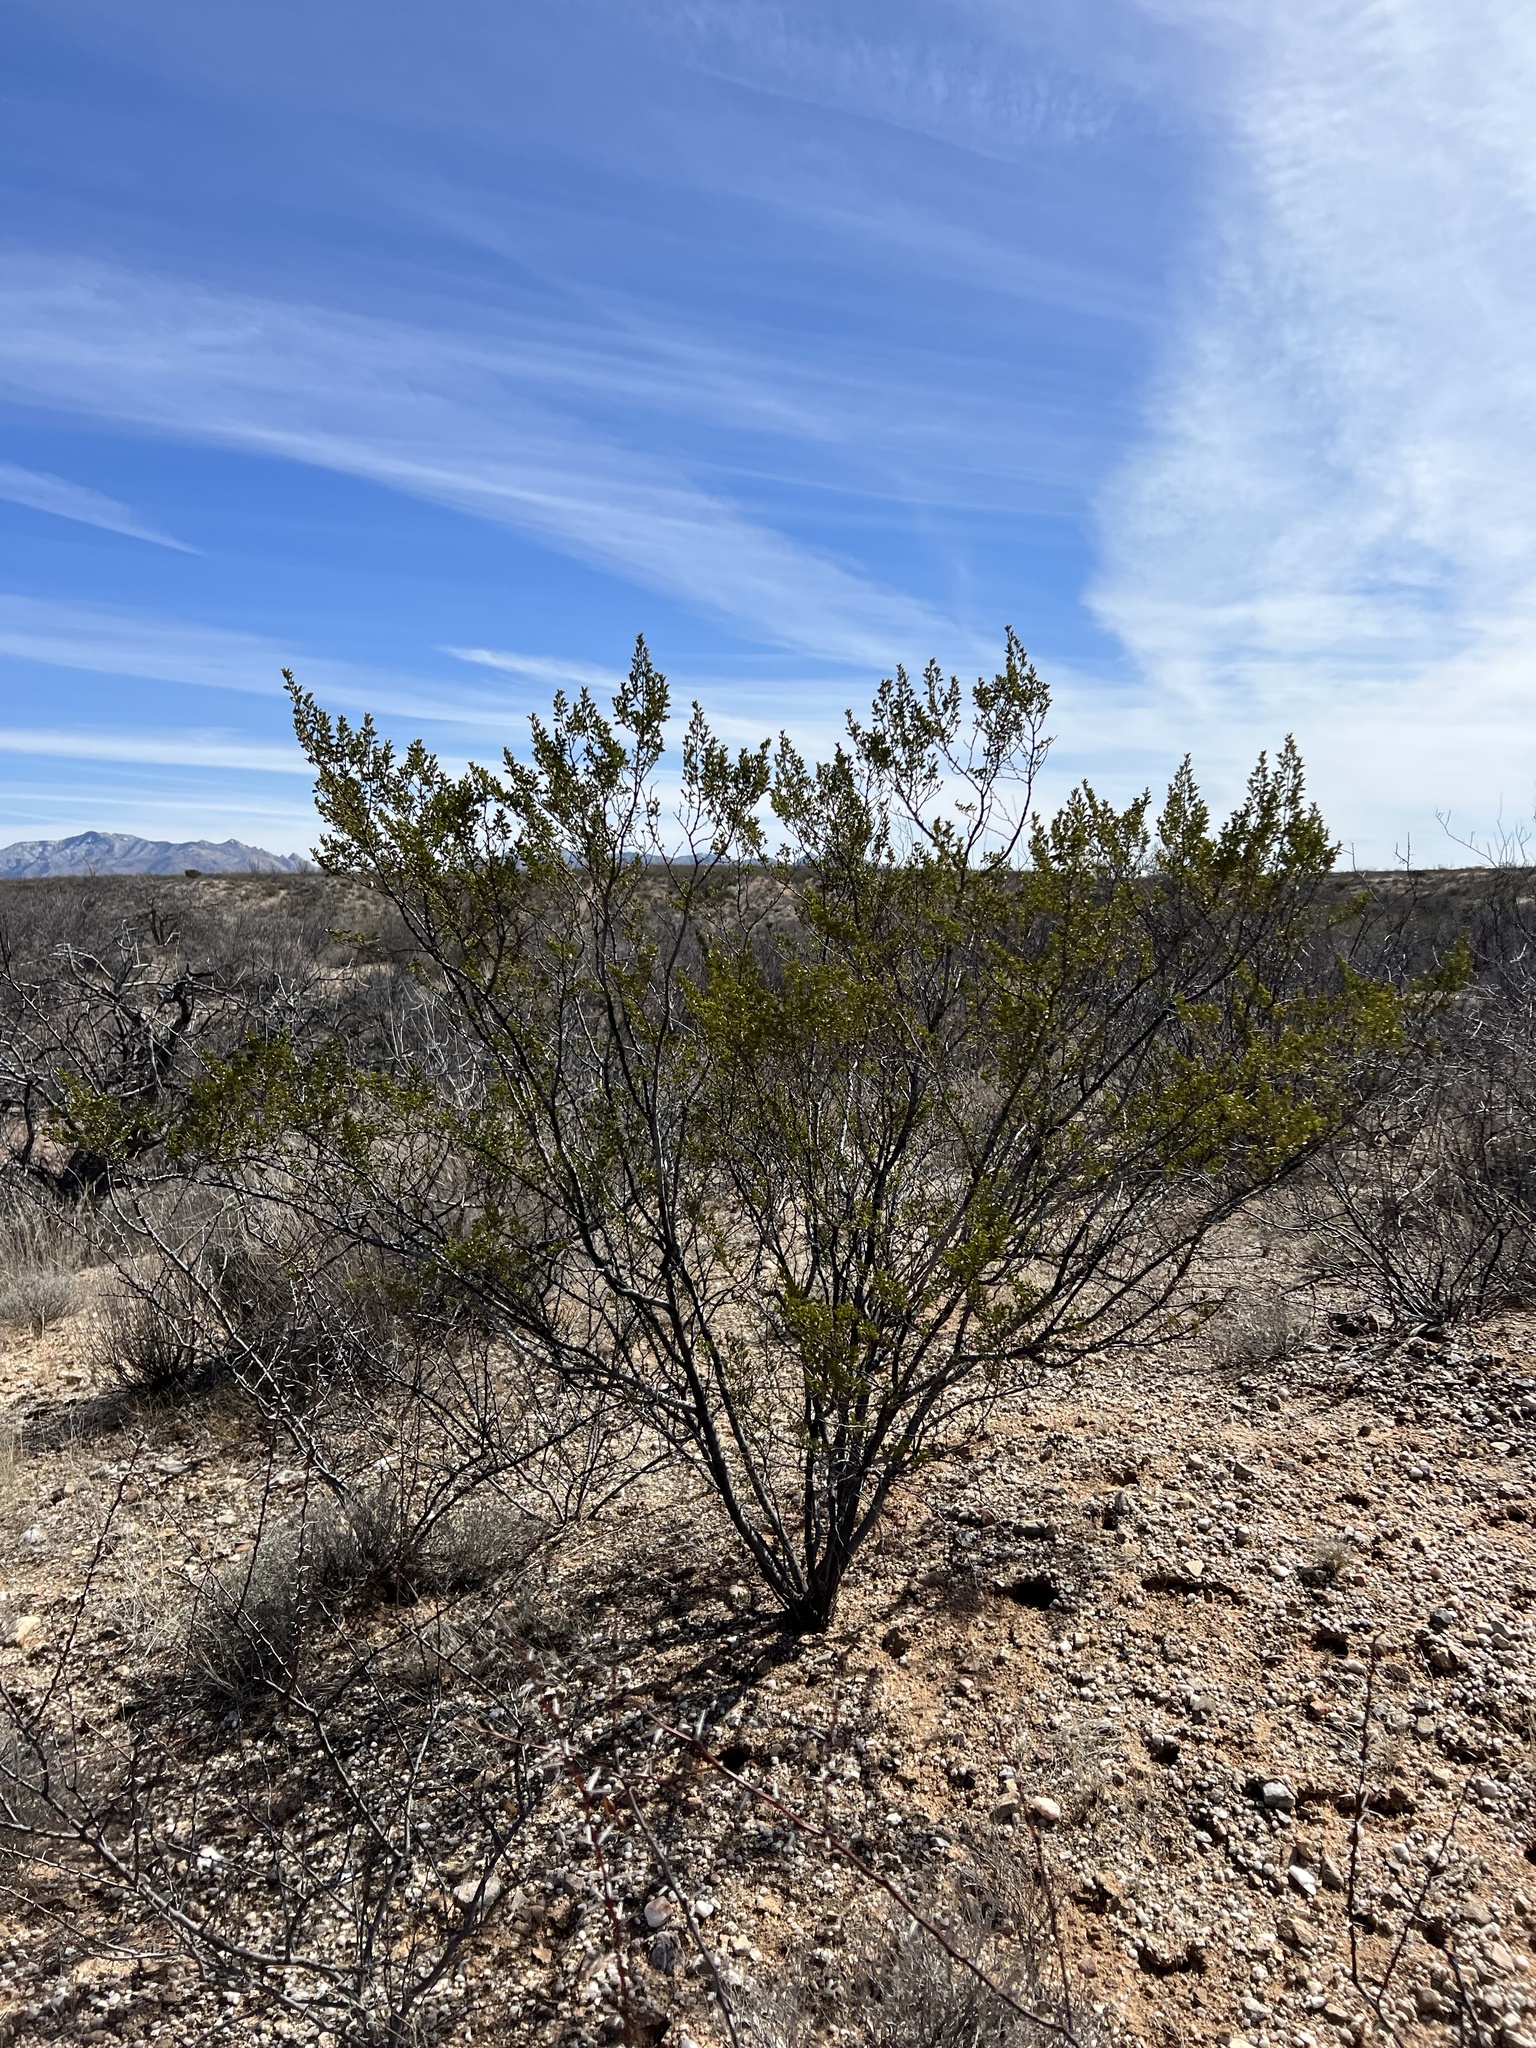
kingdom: Plantae
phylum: Tracheophyta
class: Magnoliopsida
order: Zygophyllales
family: Zygophyllaceae
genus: Larrea
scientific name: Larrea tridentata
